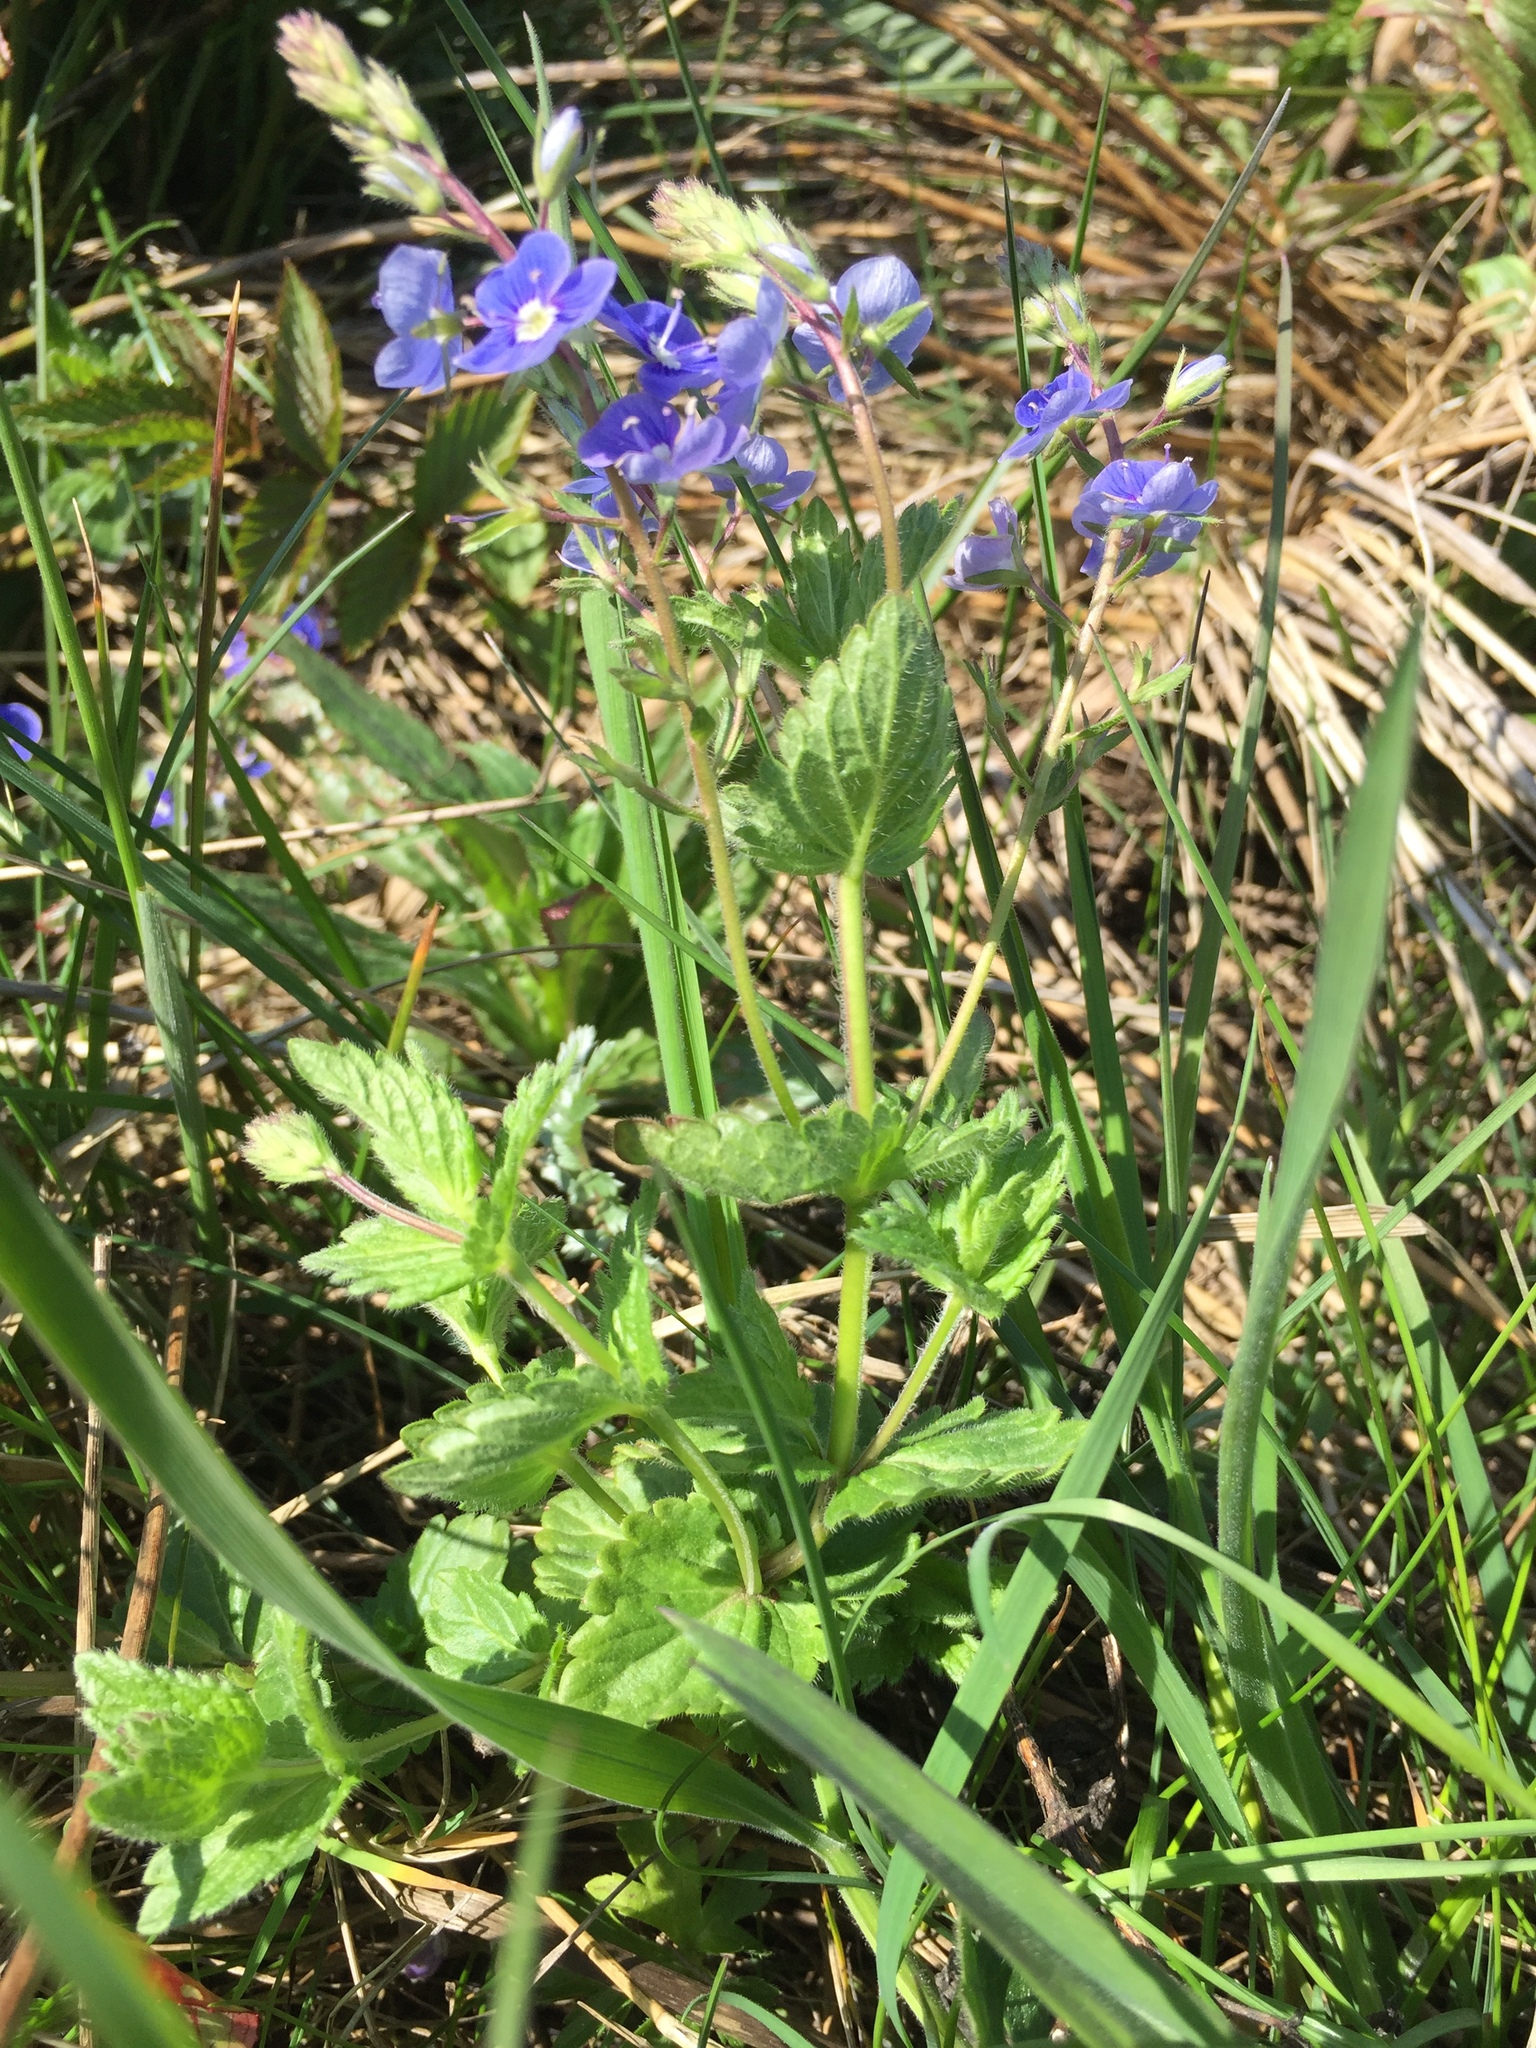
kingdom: Plantae
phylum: Tracheophyta
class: Magnoliopsida
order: Lamiales
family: Plantaginaceae
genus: Veronica
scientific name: Veronica chamaedrys
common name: Germander speedwell
